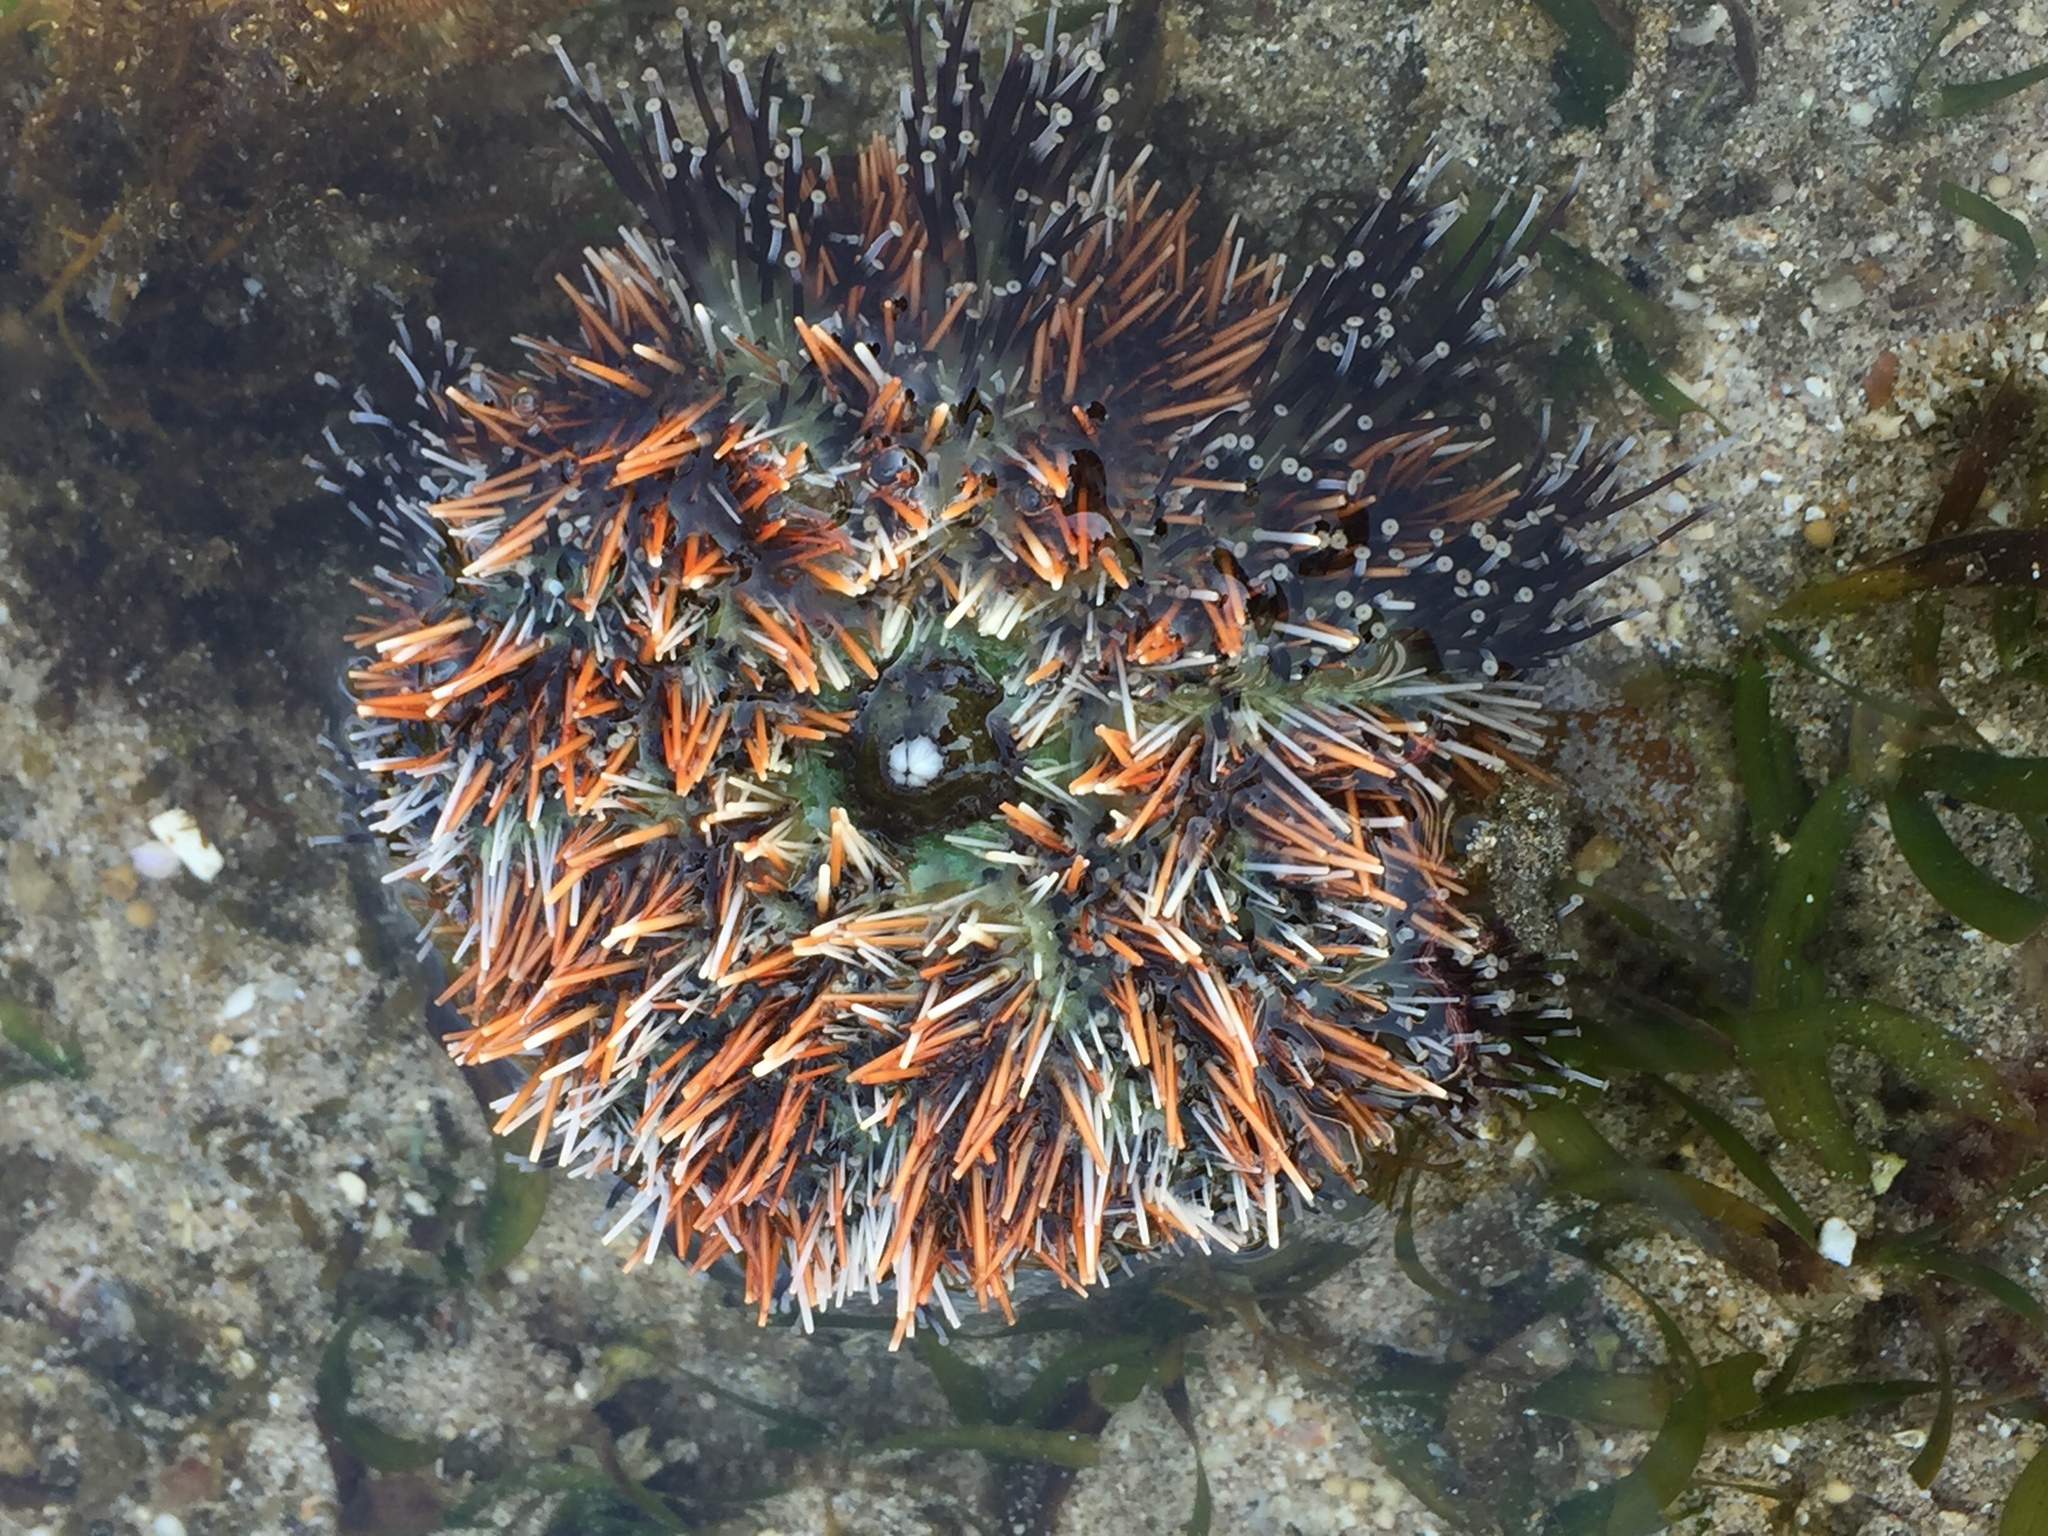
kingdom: Animalia
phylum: Echinodermata
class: Echinoidea
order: Camarodonta
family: Toxopneustidae
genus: Tripneustes
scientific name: Tripneustes gratilla
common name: Bischofsmützenseeigel
